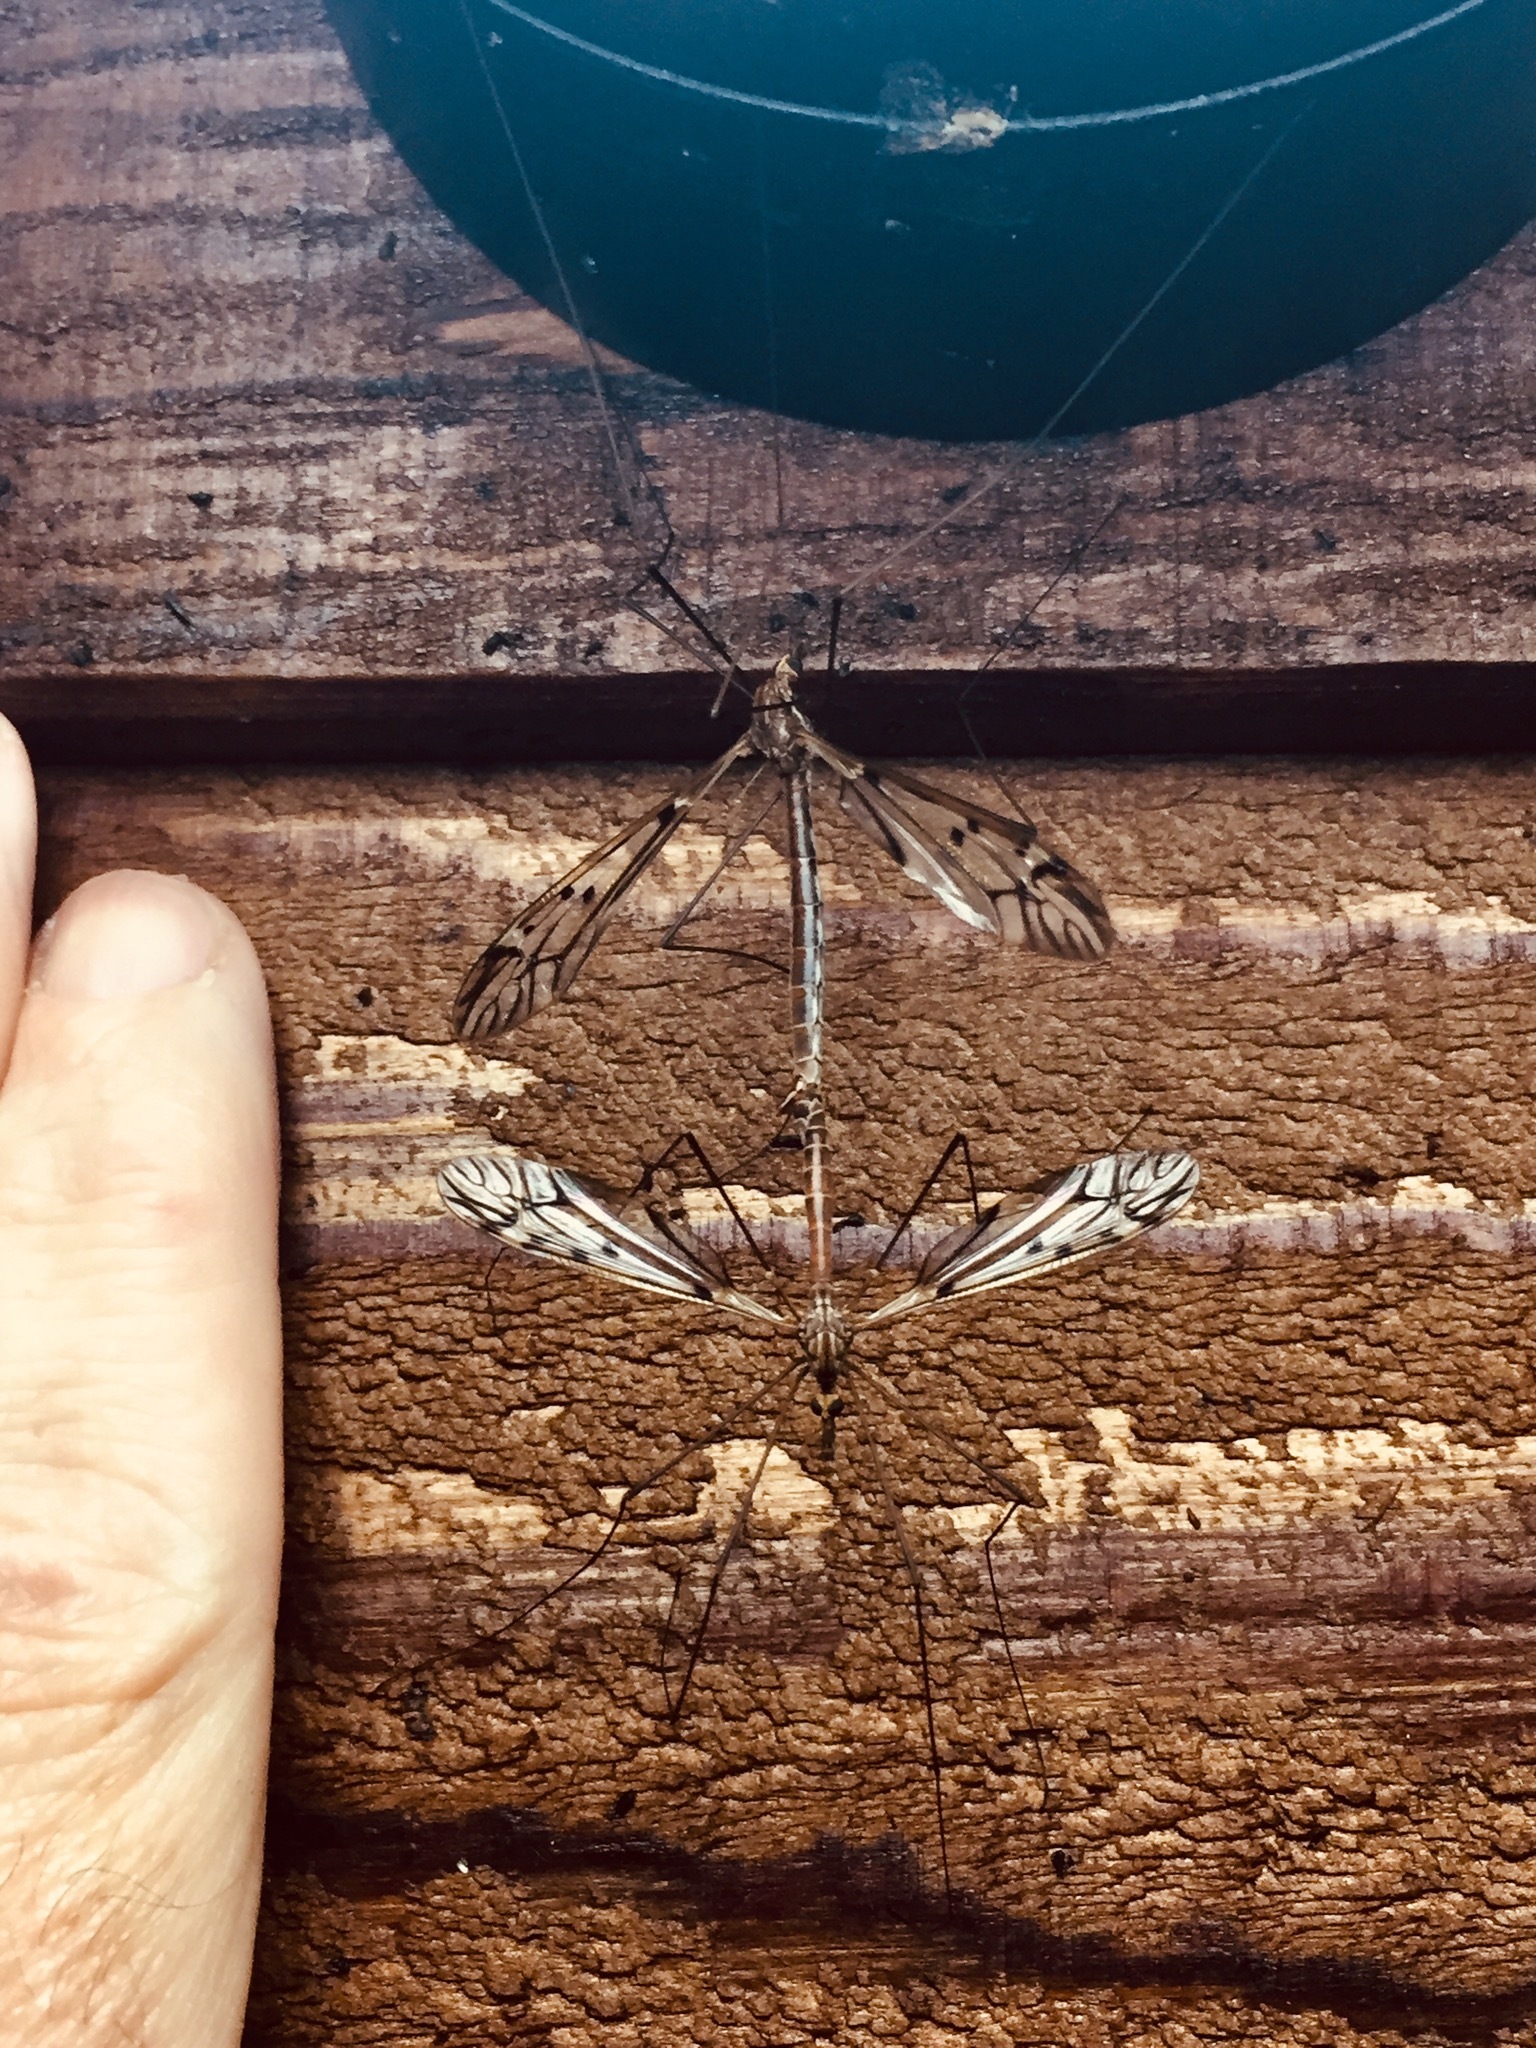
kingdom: Animalia
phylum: Arthropoda
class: Insecta
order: Diptera
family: Tipulidae
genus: Zelandotipula
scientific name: Zelandotipula novarae
